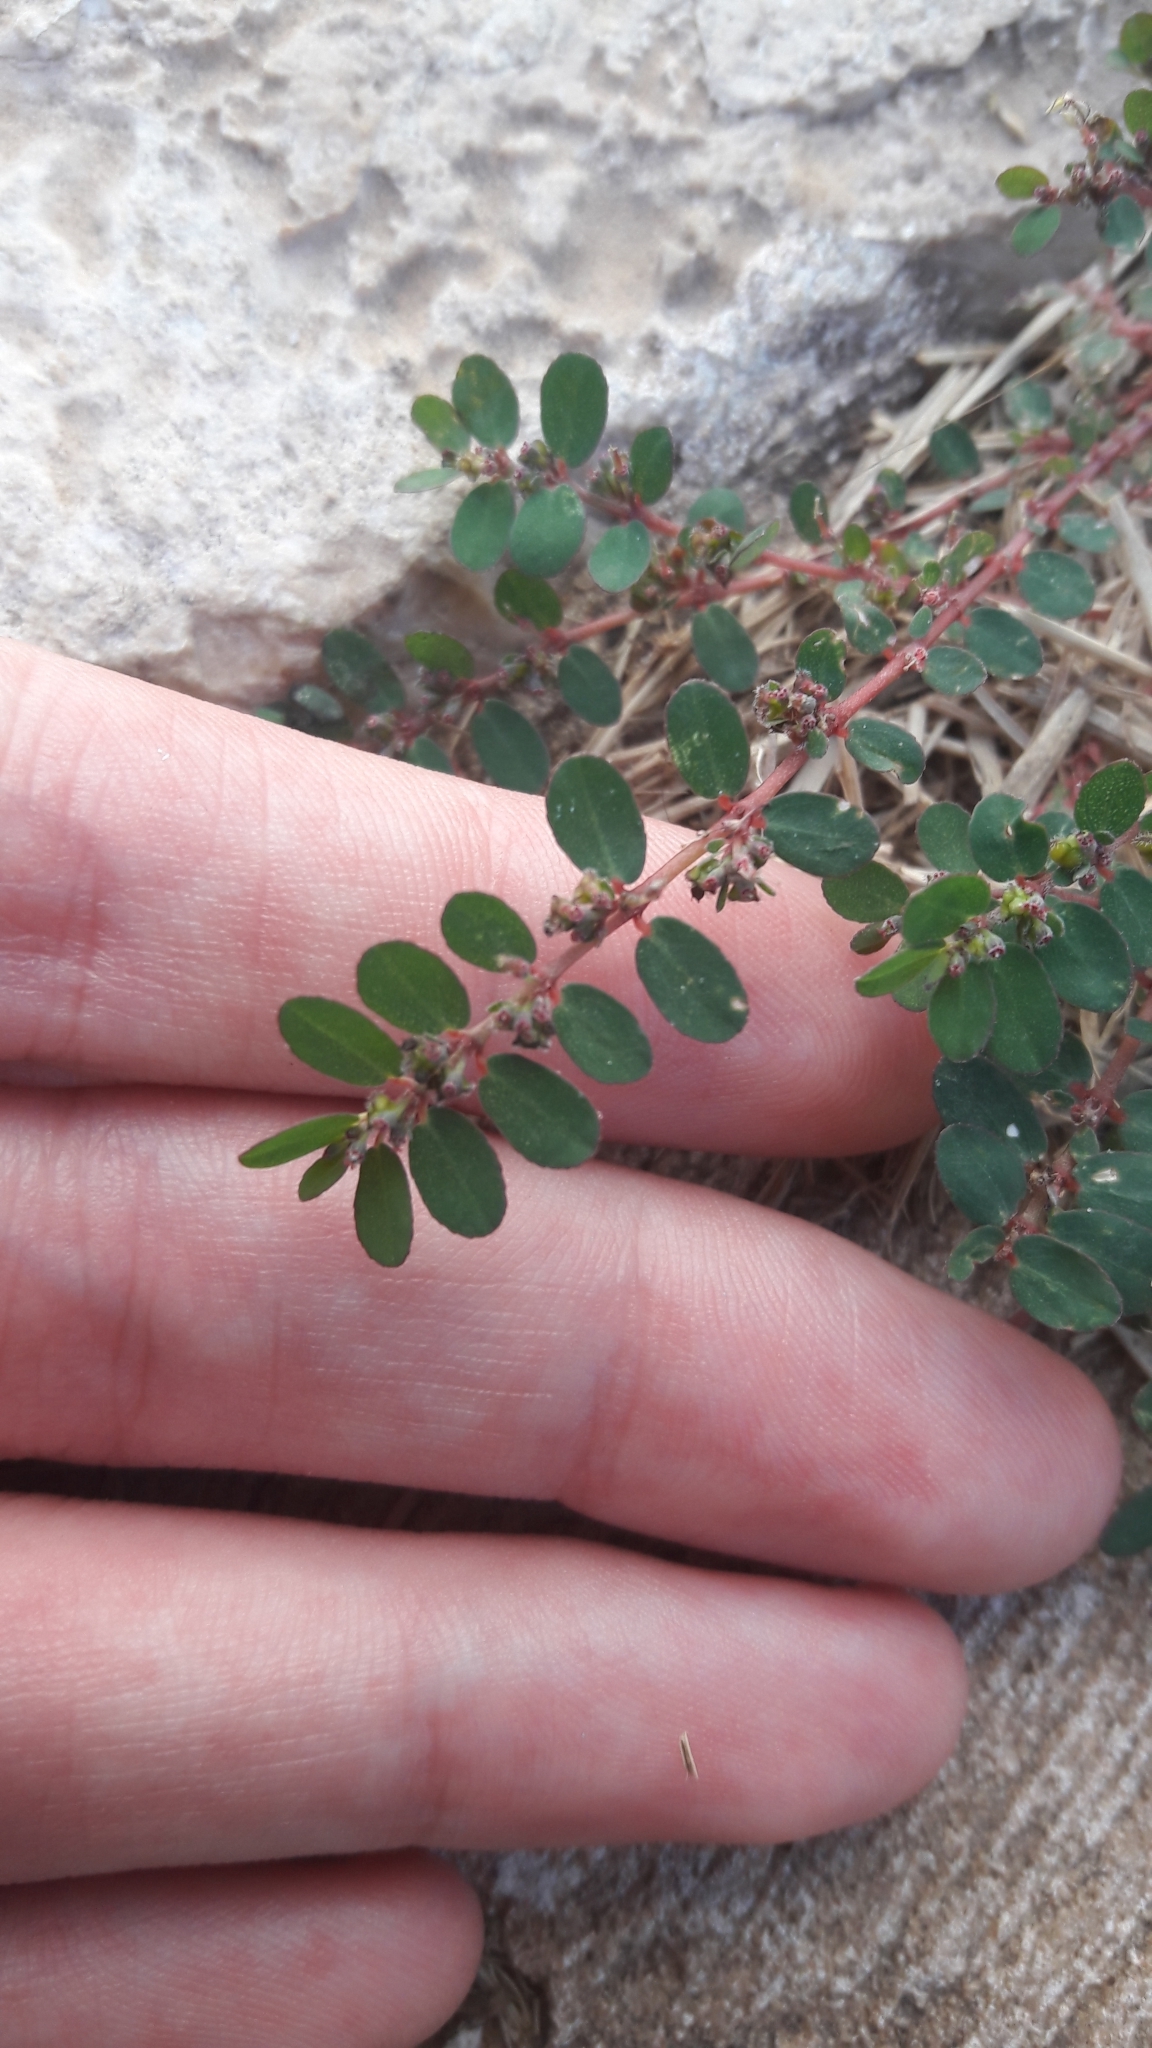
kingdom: Plantae
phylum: Tracheophyta
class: Magnoliopsida
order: Malpighiales
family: Euphorbiaceae
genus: Euphorbia
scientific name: Euphorbia prostrata
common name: Prostrate sandmat
